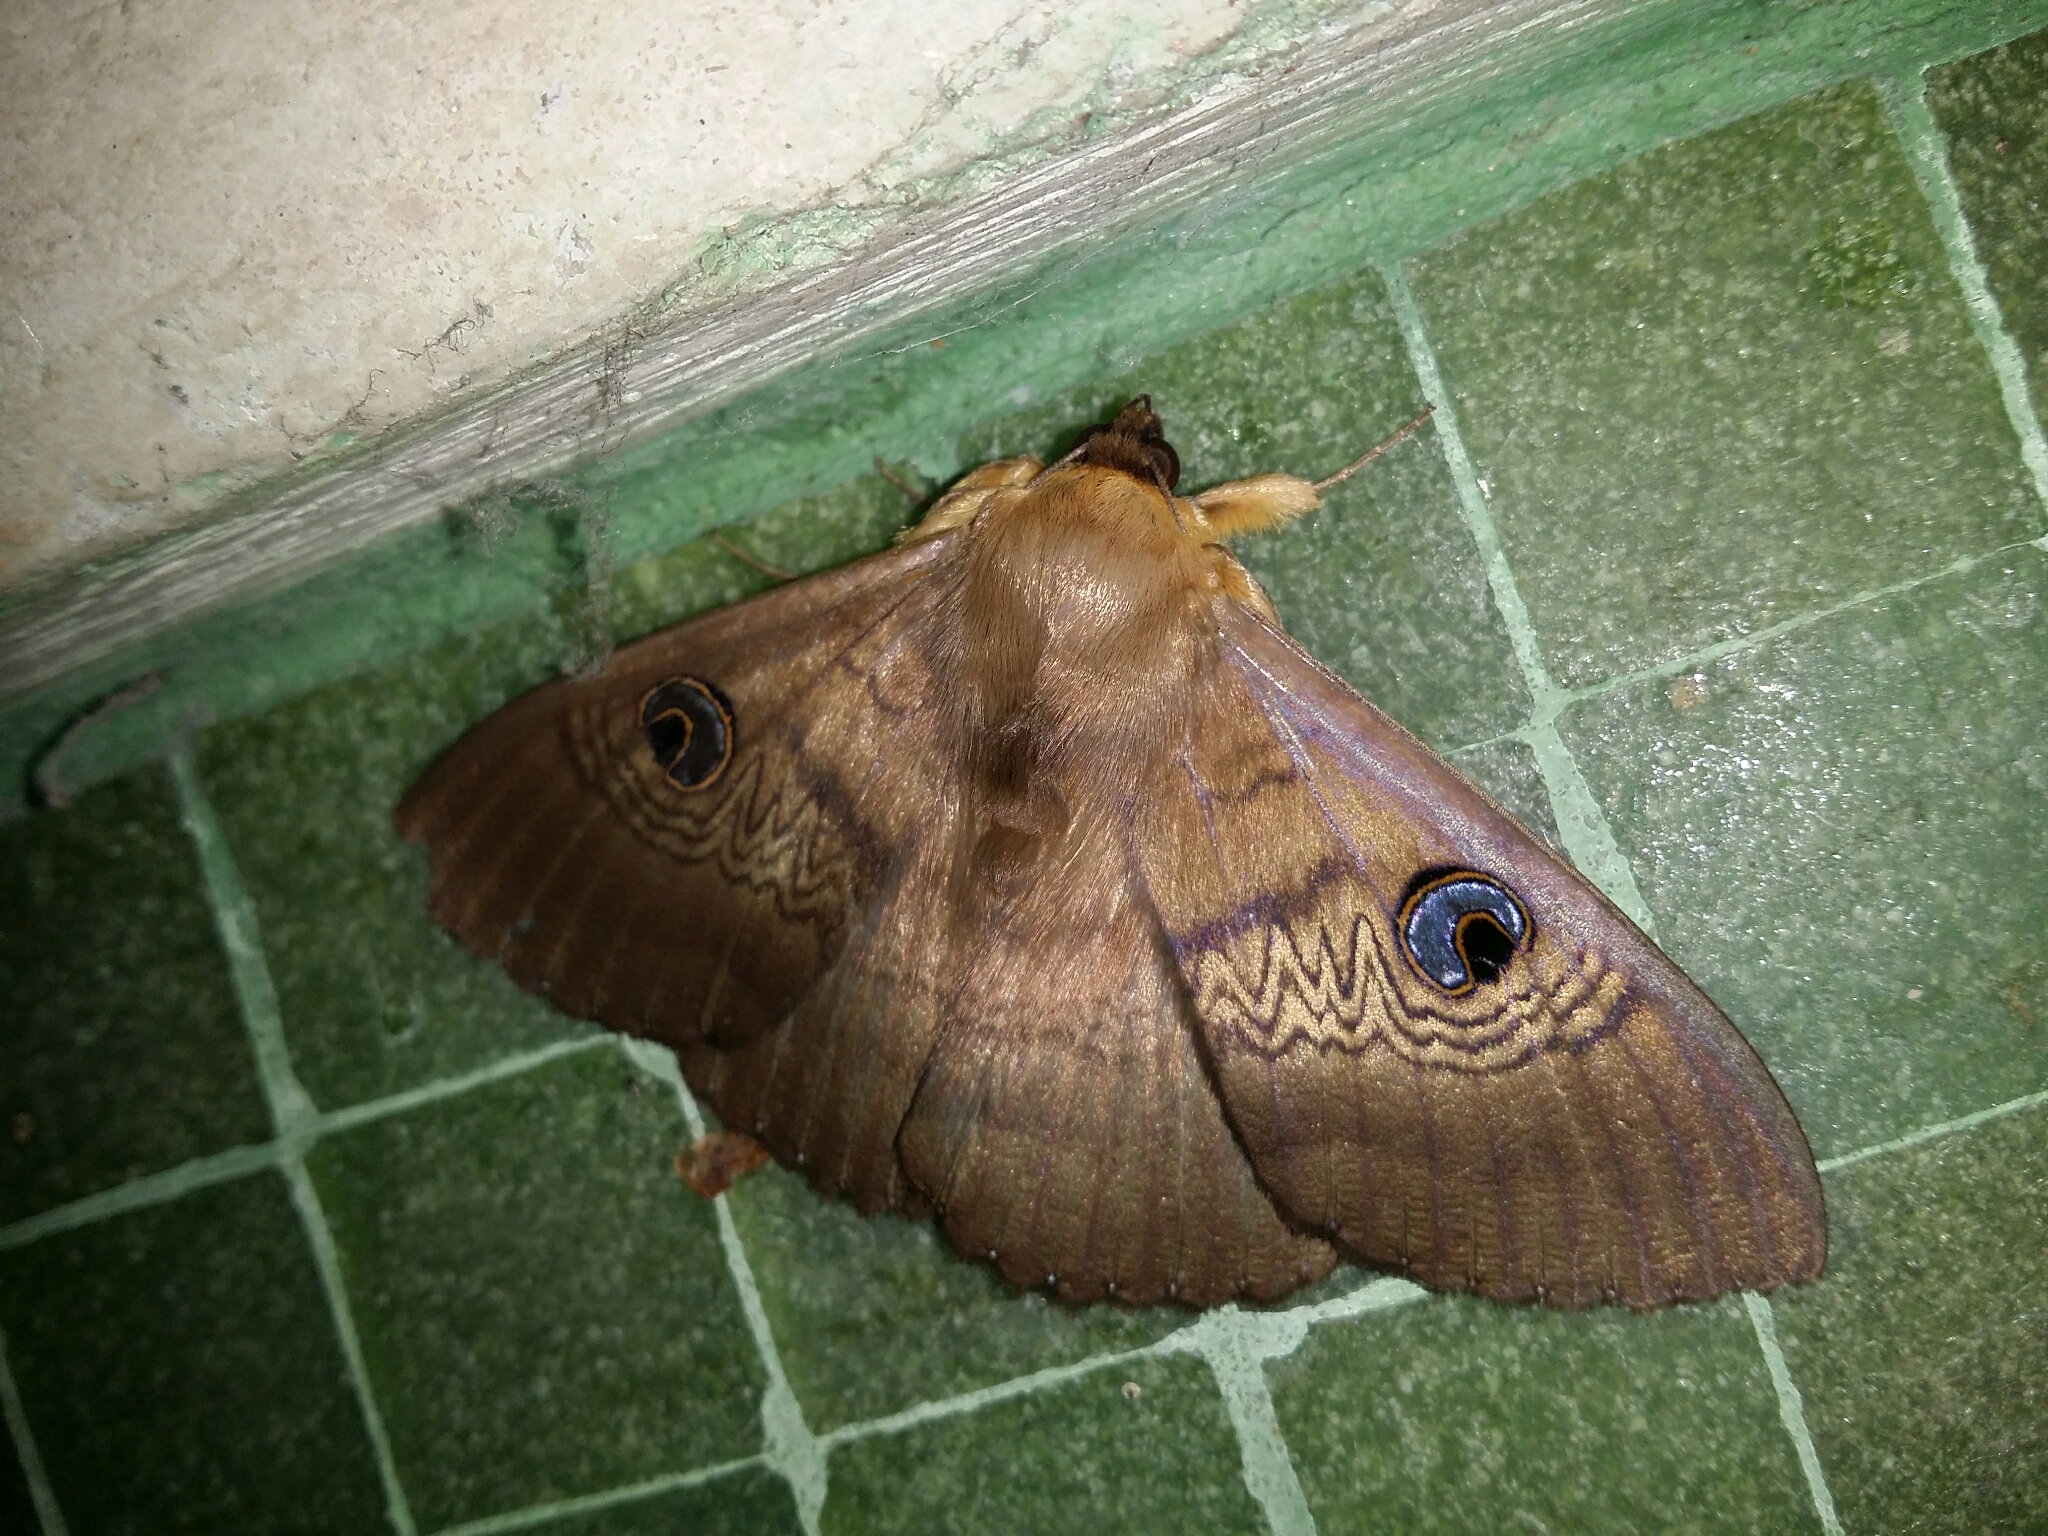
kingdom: Animalia
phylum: Arthropoda
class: Insecta
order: Lepidoptera
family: Erebidae
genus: Dasypodia
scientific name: Dasypodia selenophora
